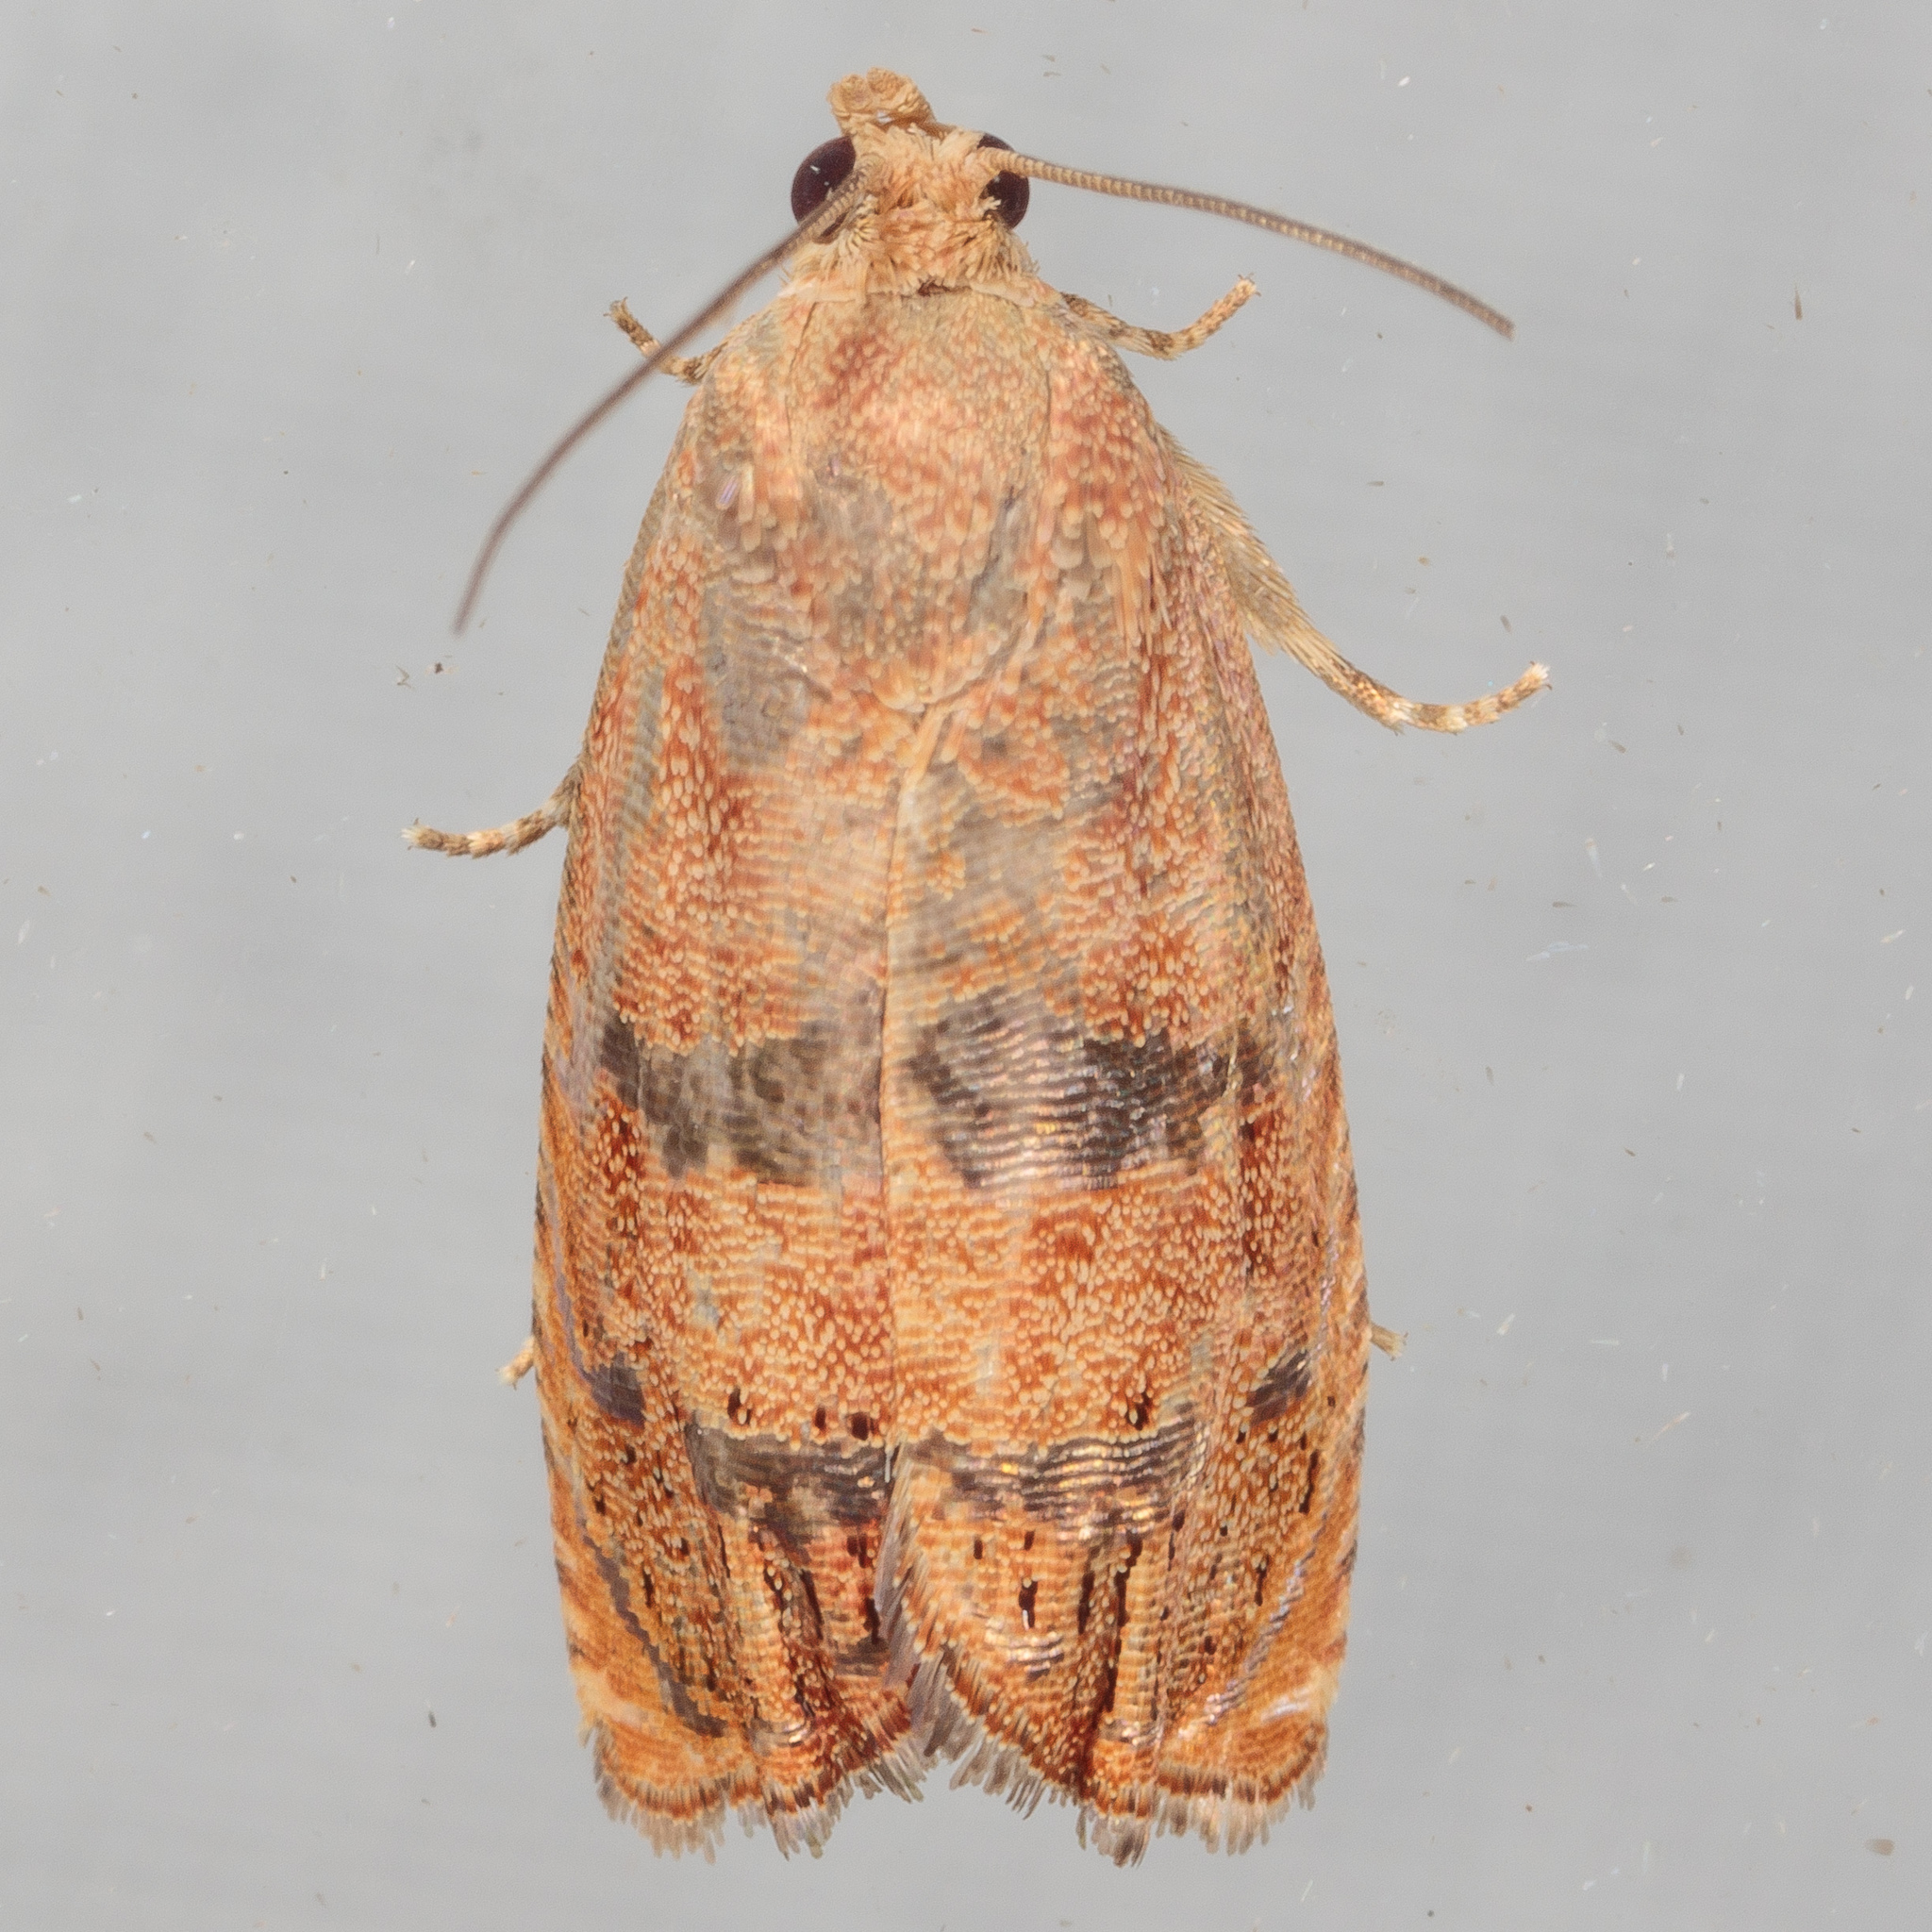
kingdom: Animalia
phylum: Arthropoda
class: Insecta
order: Lepidoptera
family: Tortricidae
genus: Cydia
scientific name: Cydia latiferreana
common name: Filbertworm moth
